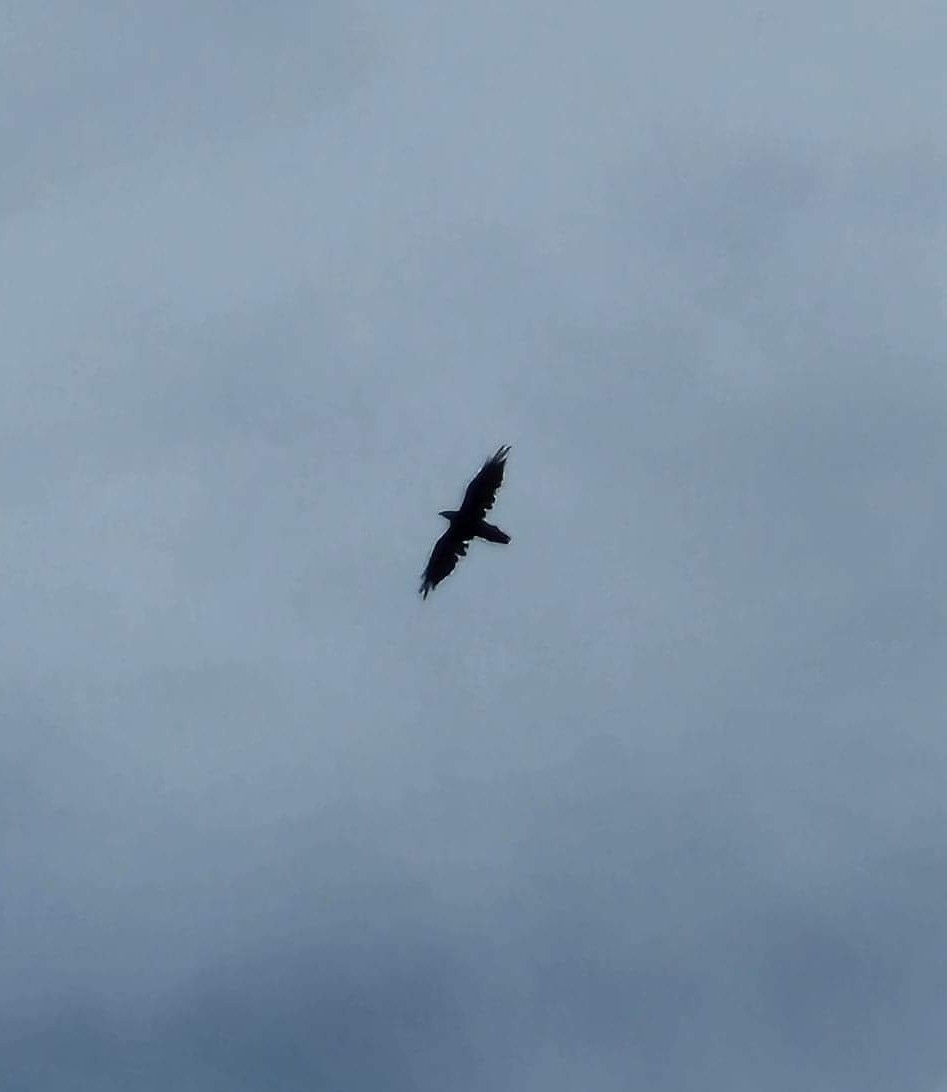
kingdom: Animalia
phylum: Chordata
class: Aves
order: Passeriformes
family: Corvidae
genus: Corvus
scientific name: Corvus corax
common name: Common raven
